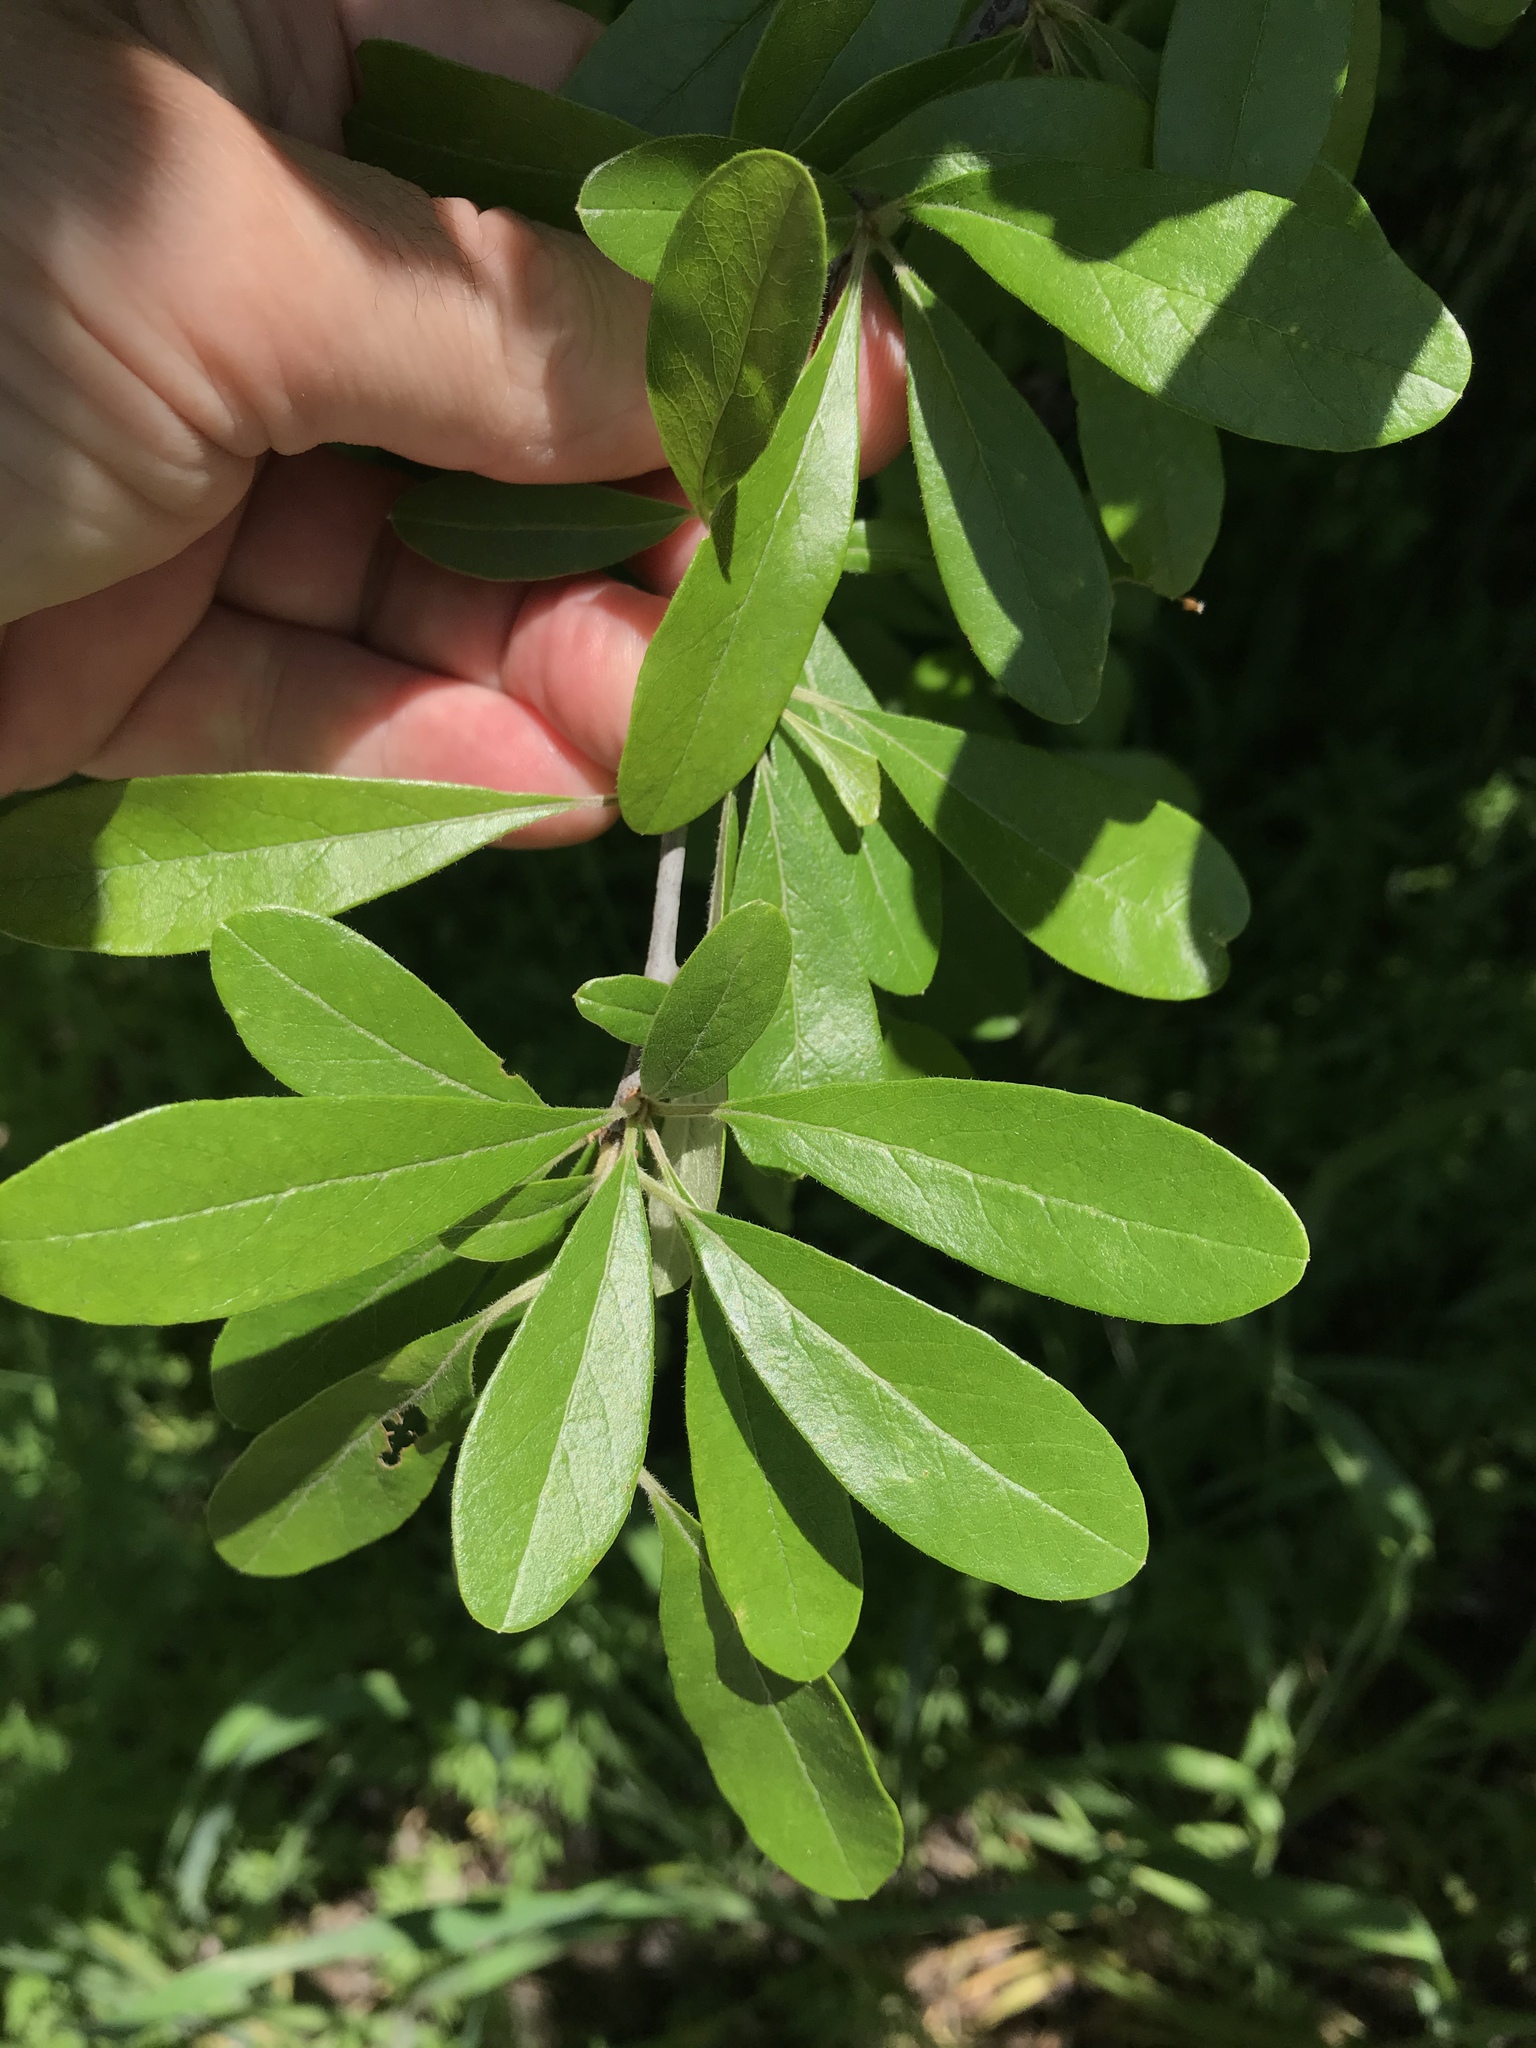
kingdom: Plantae
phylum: Tracheophyta
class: Magnoliopsida
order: Ericales
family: Sapotaceae
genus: Sideroxylon
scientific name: Sideroxylon lanuginosum
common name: Chittamwood
